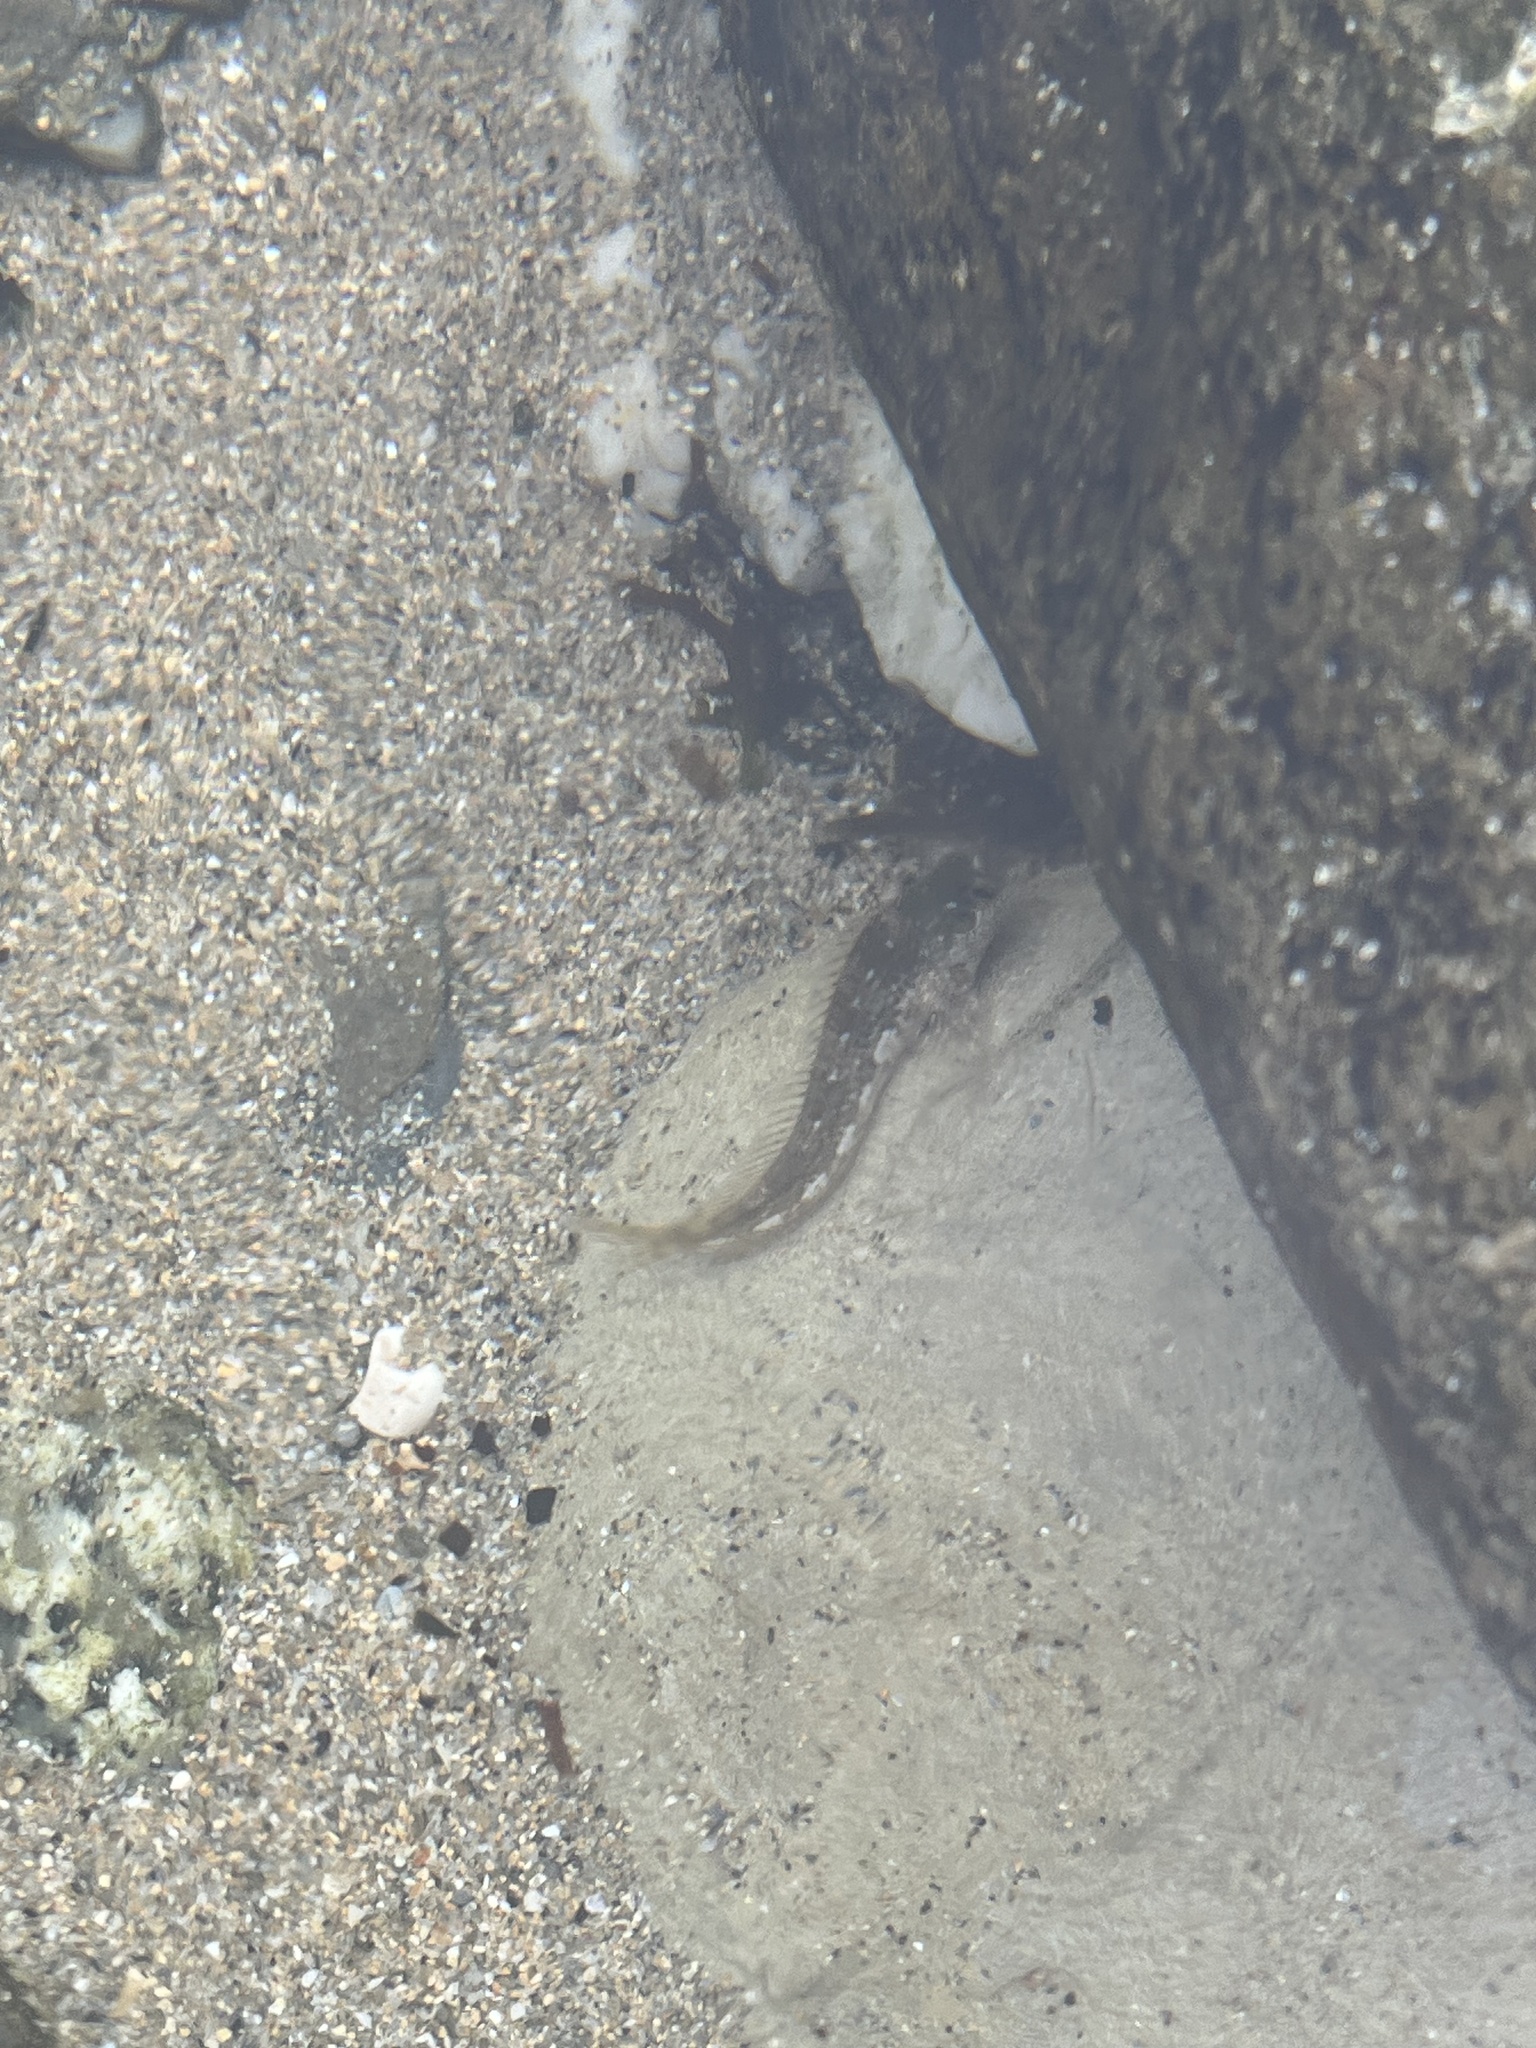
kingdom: Animalia
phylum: Chordata
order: Perciformes
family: Blenniidae
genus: Lipophrys
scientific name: Lipophrys pholis
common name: Shanny
